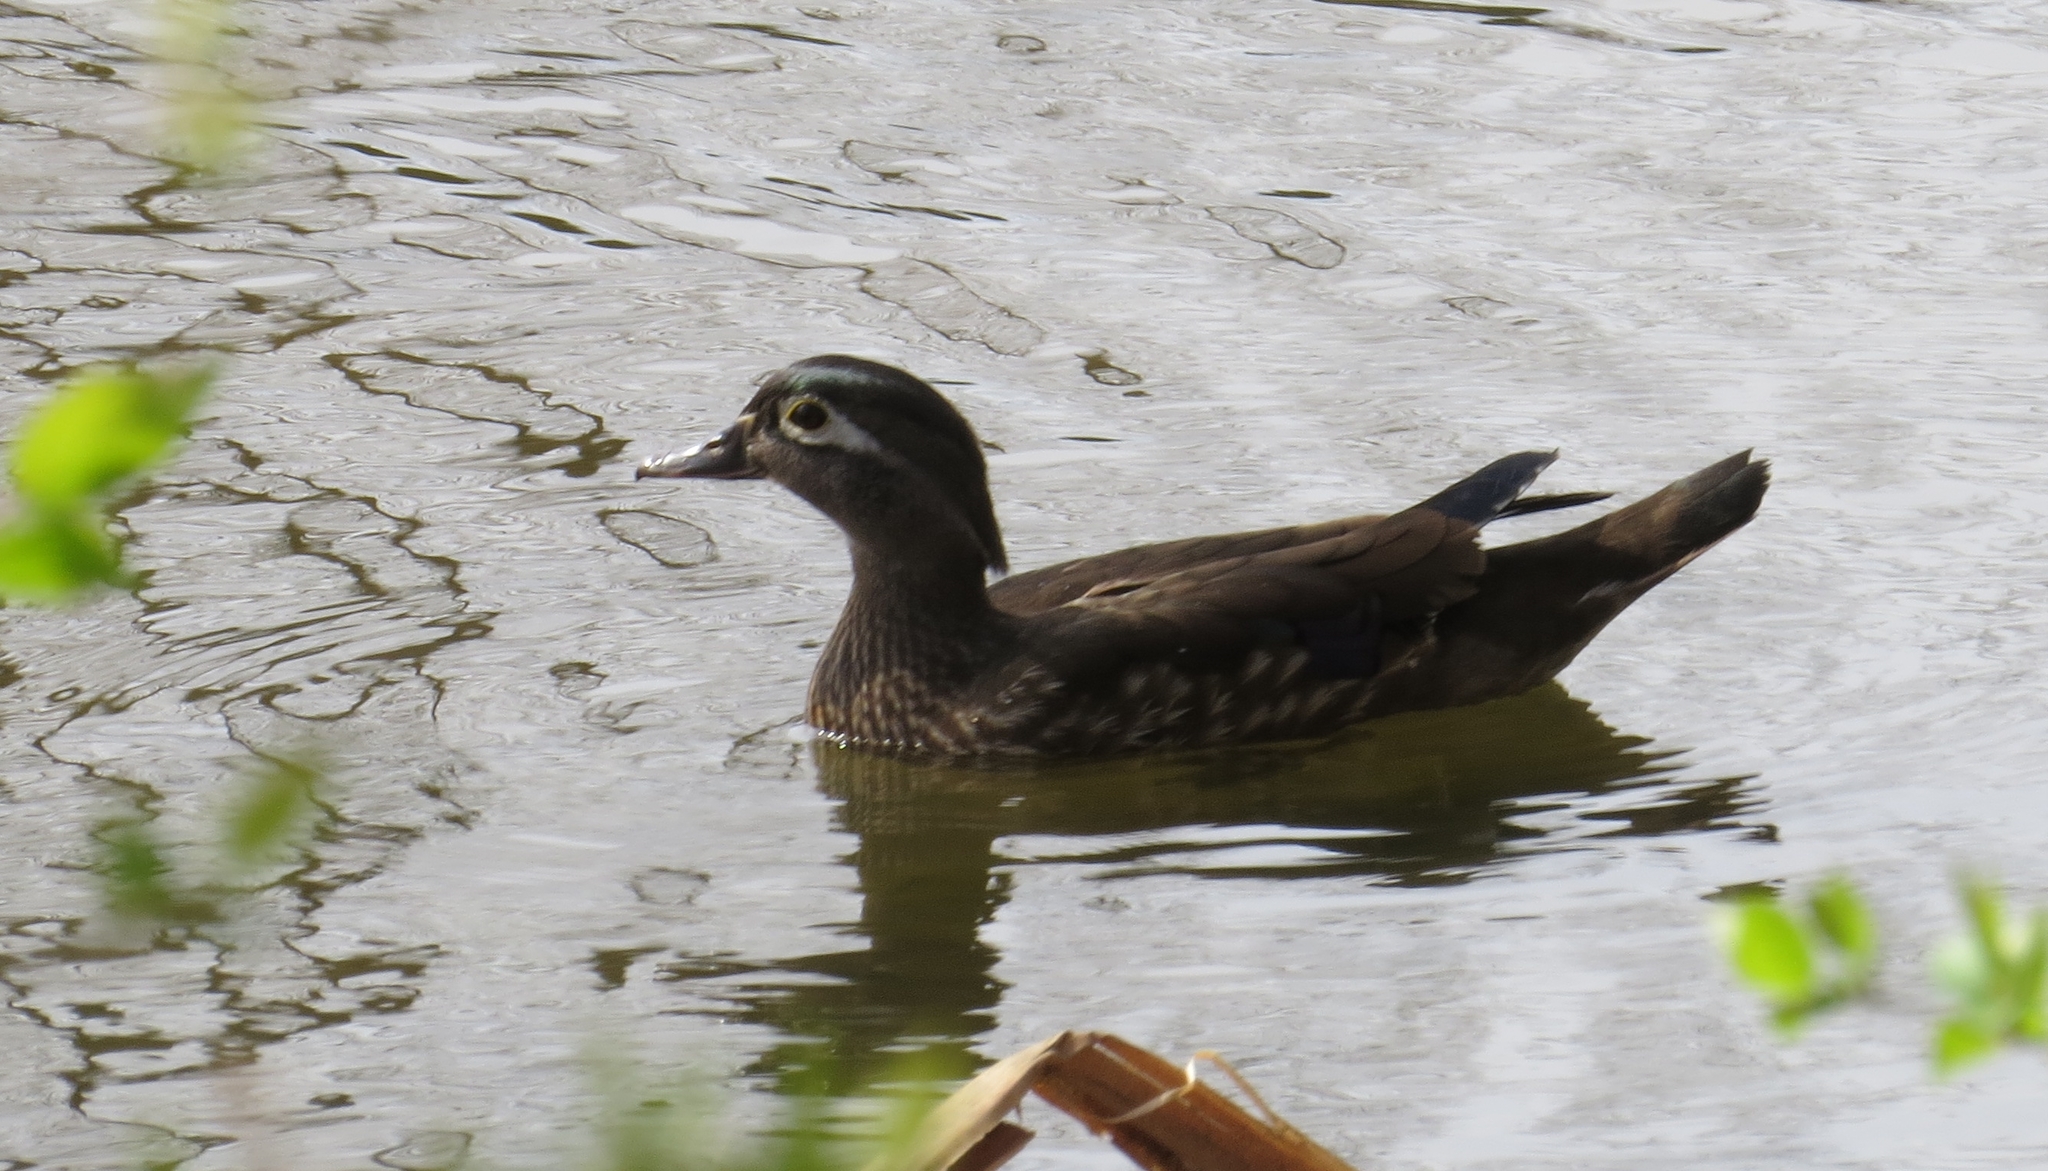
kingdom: Animalia
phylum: Chordata
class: Aves
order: Anseriformes
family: Anatidae
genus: Aix
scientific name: Aix sponsa
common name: Wood duck
